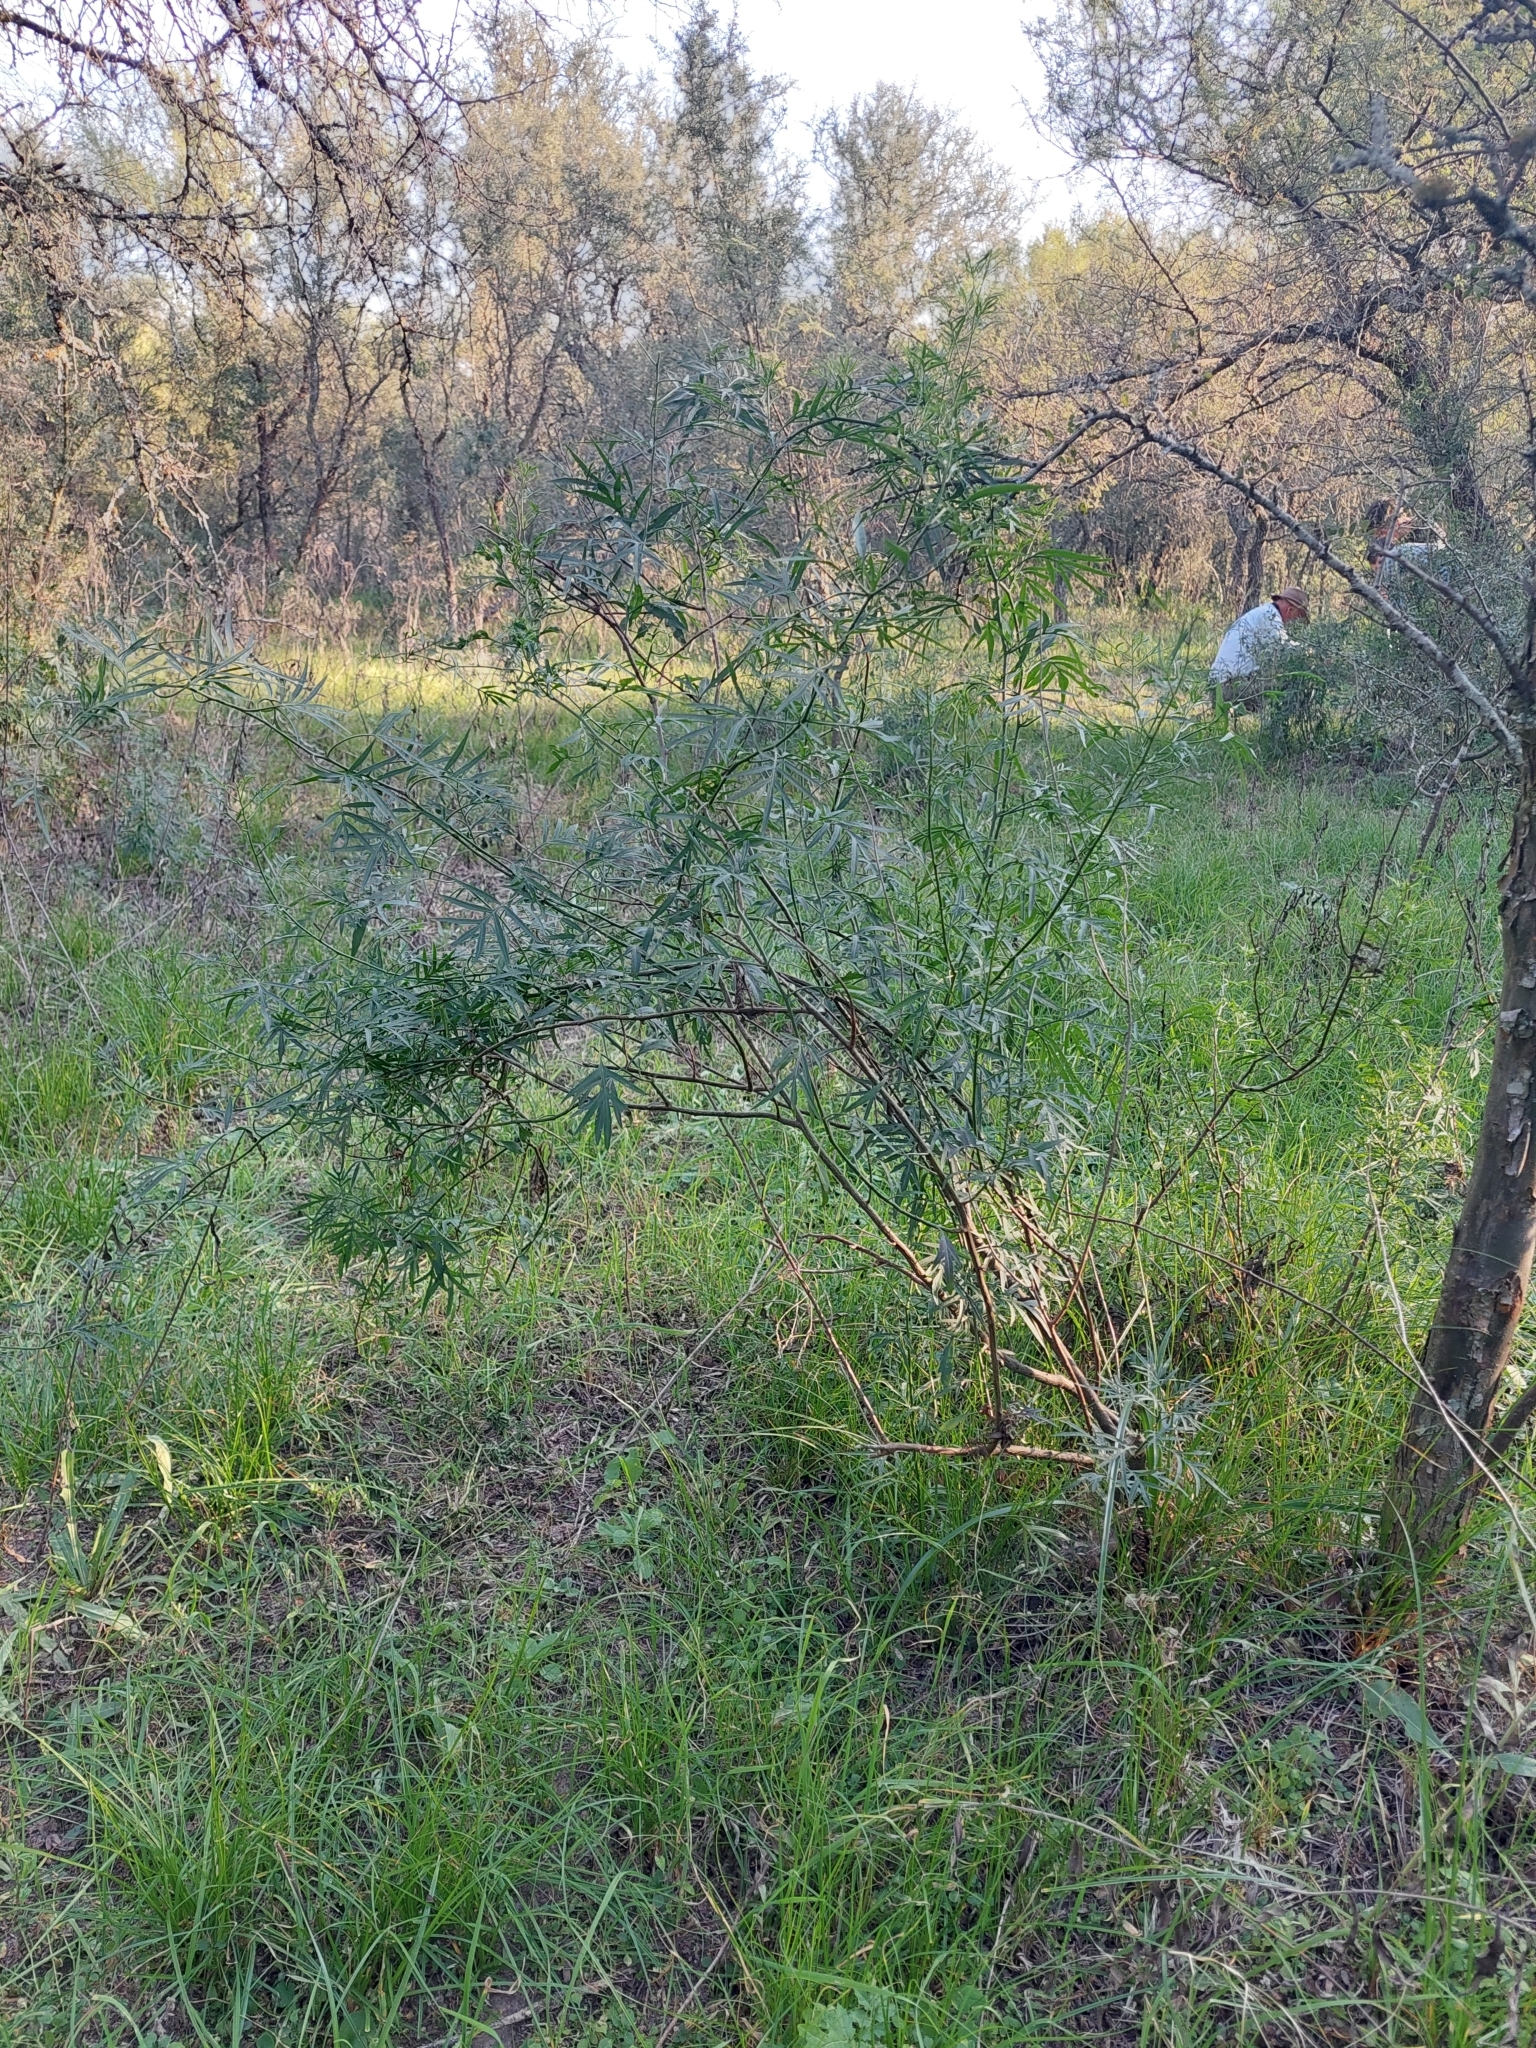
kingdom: Plantae
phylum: Tracheophyta
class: Magnoliopsida
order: Solanales
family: Solanaceae
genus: Solanum
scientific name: Solanum angustifidum
